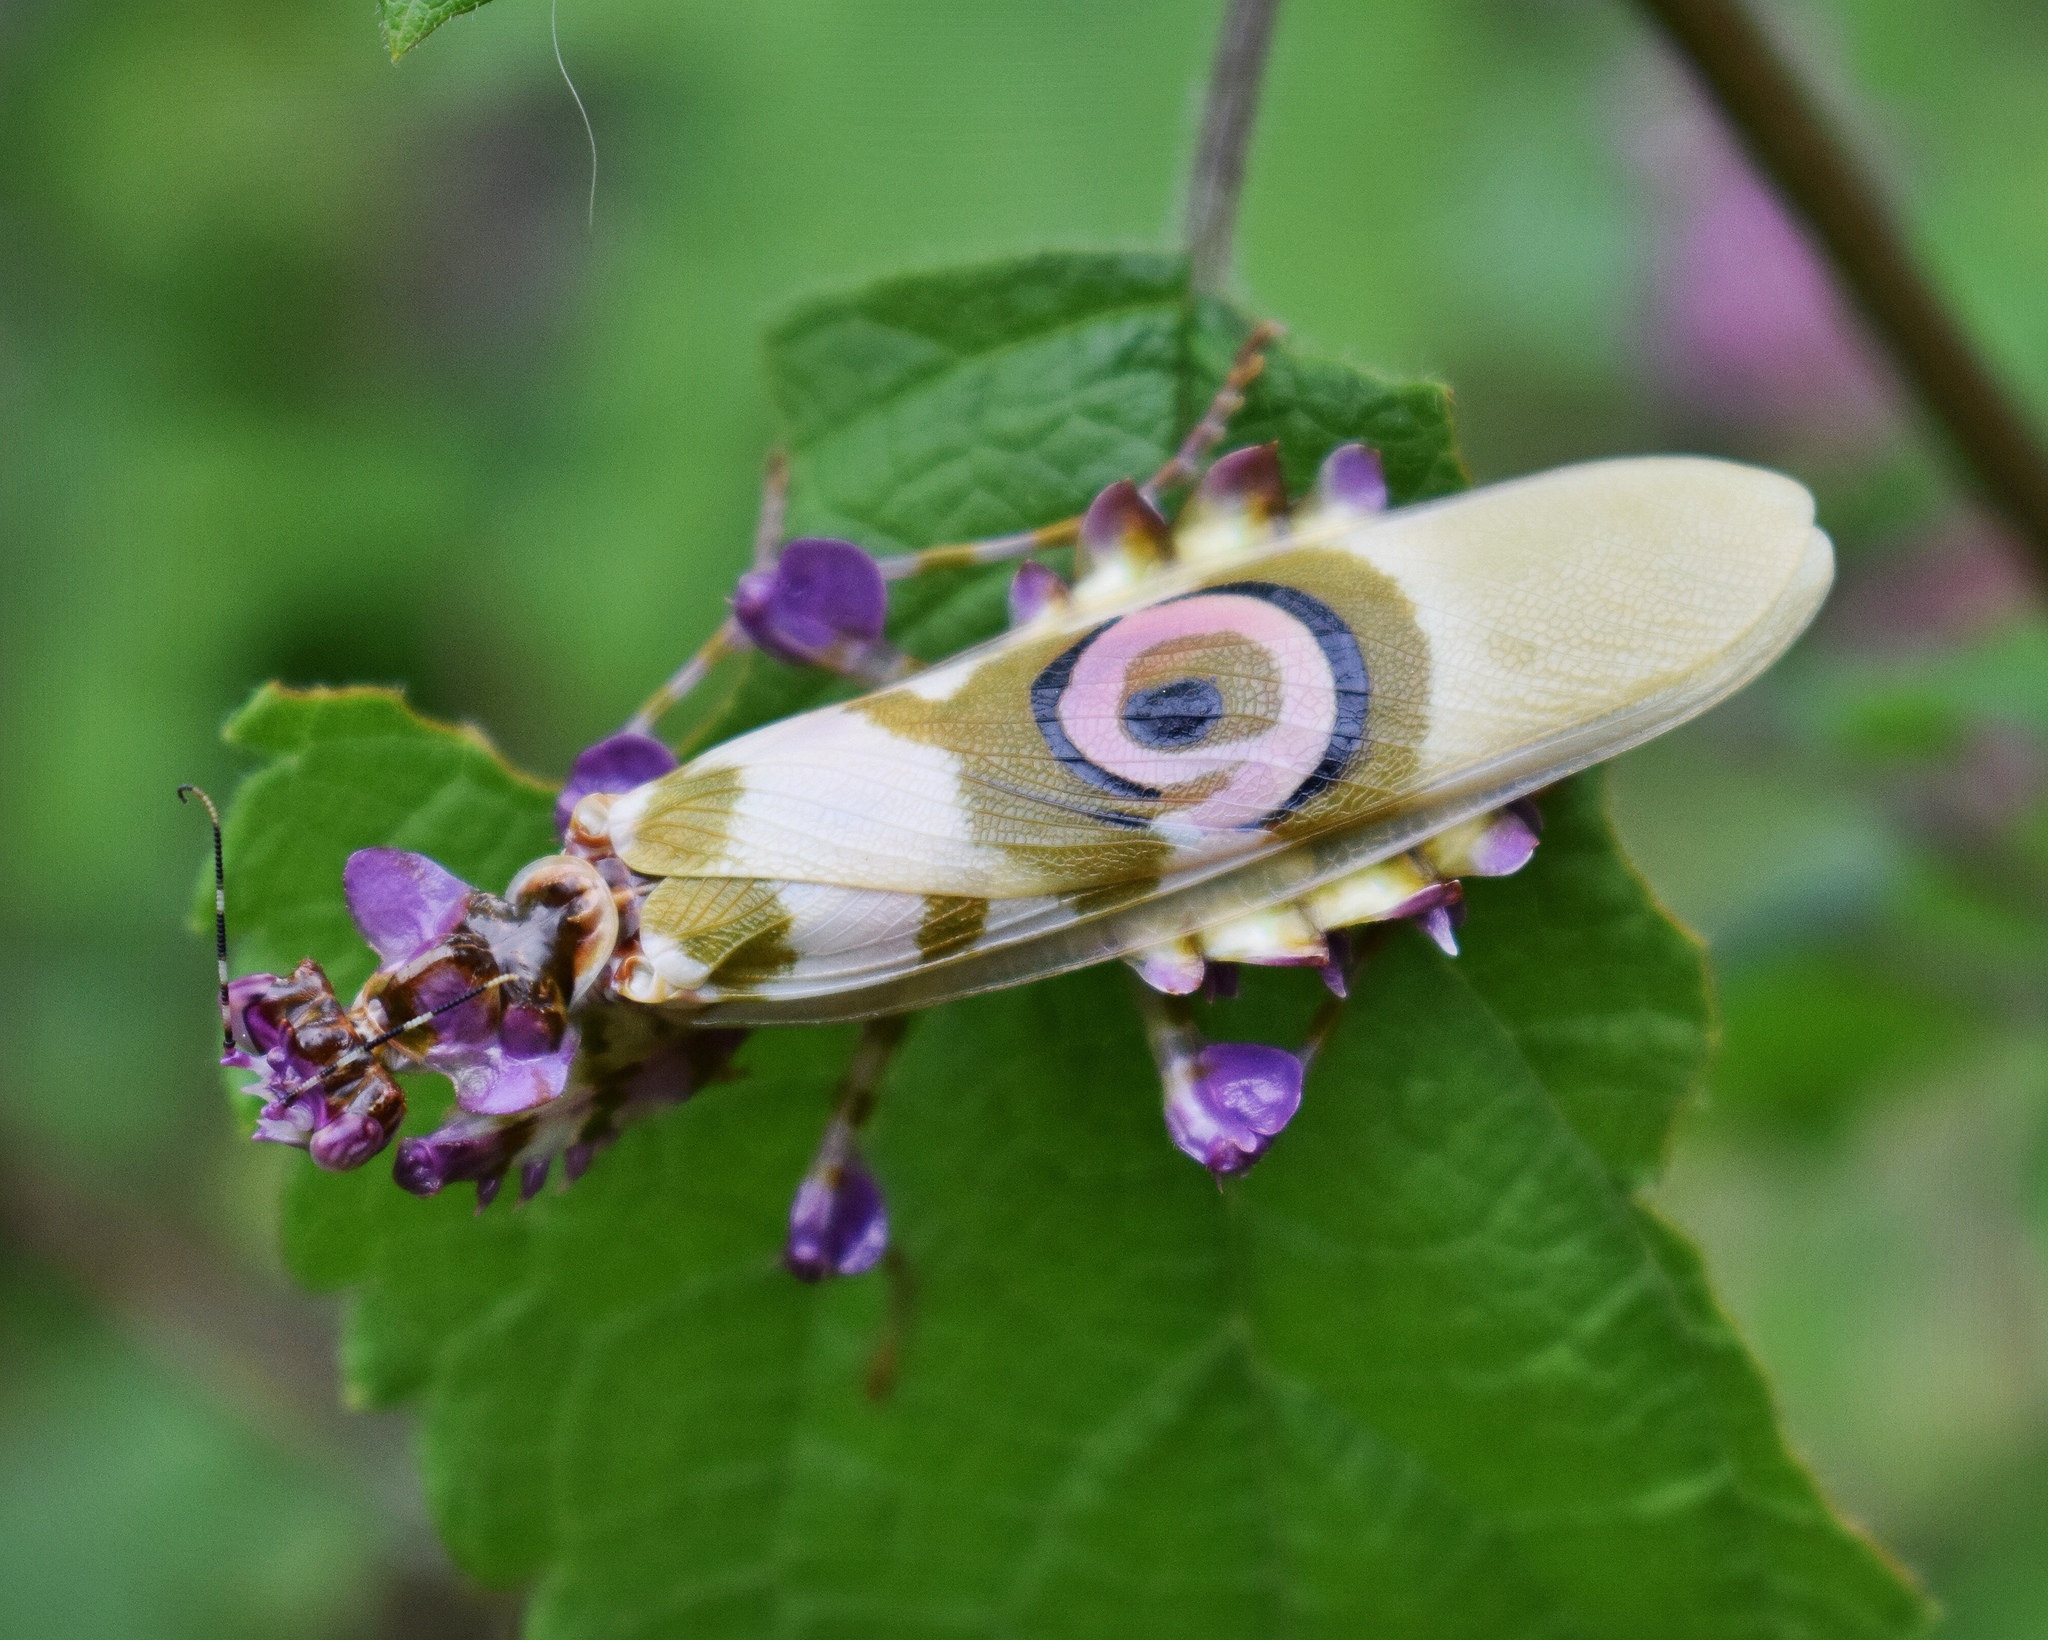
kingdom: Animalia
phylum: Arthropoda
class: Insecta
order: Mantodea
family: Hymenopodidae
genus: Pseudocreobotra
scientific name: Pseudocreobotra wahlbergi
